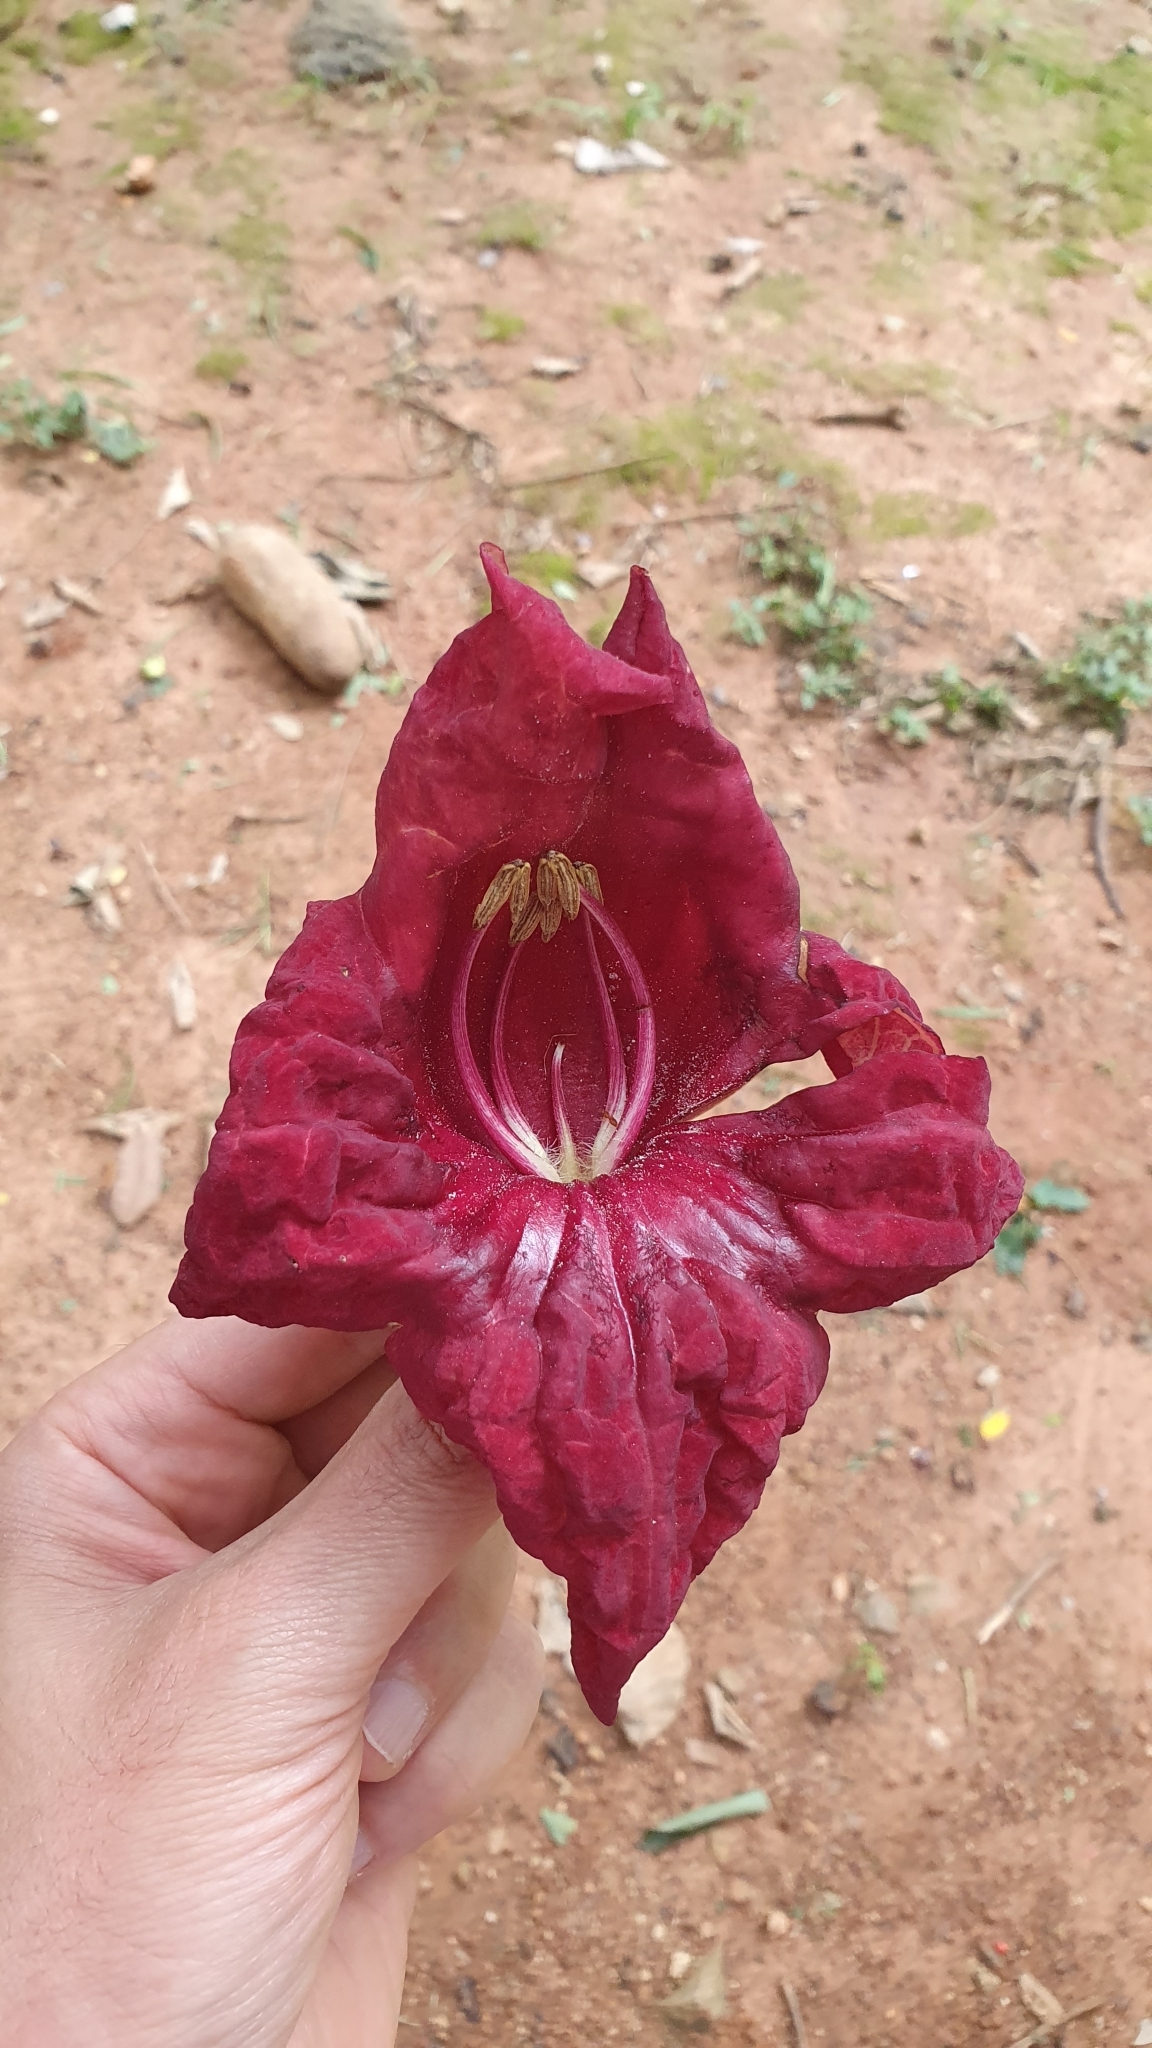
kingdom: Plantae
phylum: Tracheophyta
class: Magnoliopsida
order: Lamiales
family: Bignoniaceae
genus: Kigelia
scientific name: Kigelia africana
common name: Sausage tree
